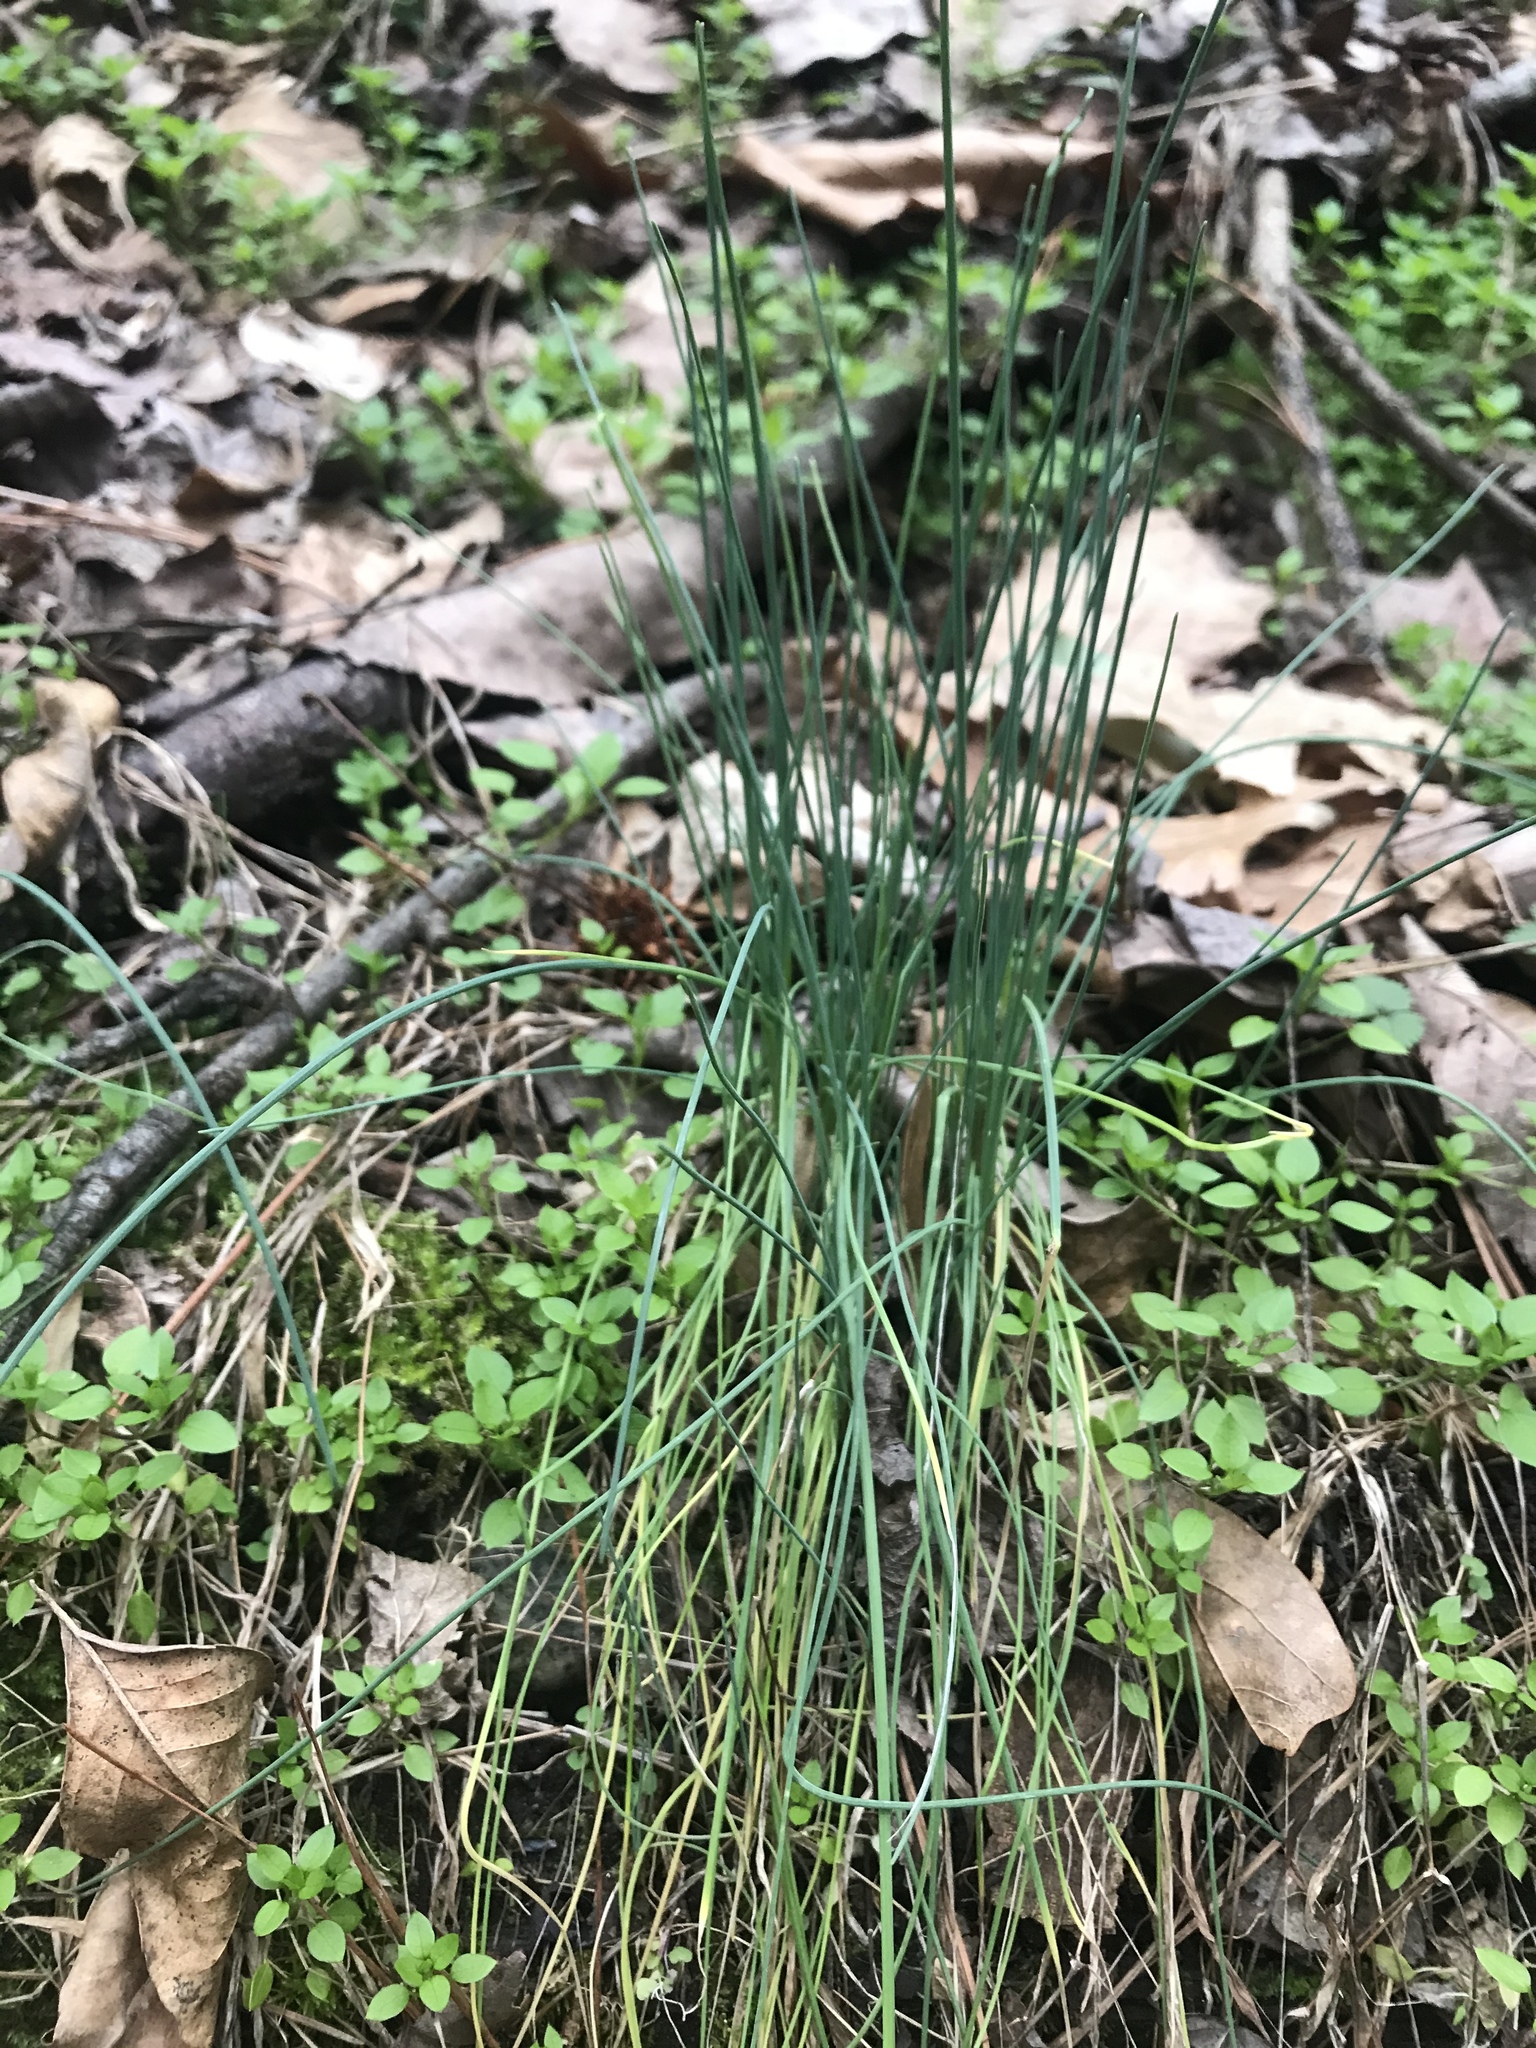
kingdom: Plantae
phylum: Tracheophyta
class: Liliopsida
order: Asparagales
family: Amaryllidaceae
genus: Allium
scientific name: Allium vineale
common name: Crow garlic
